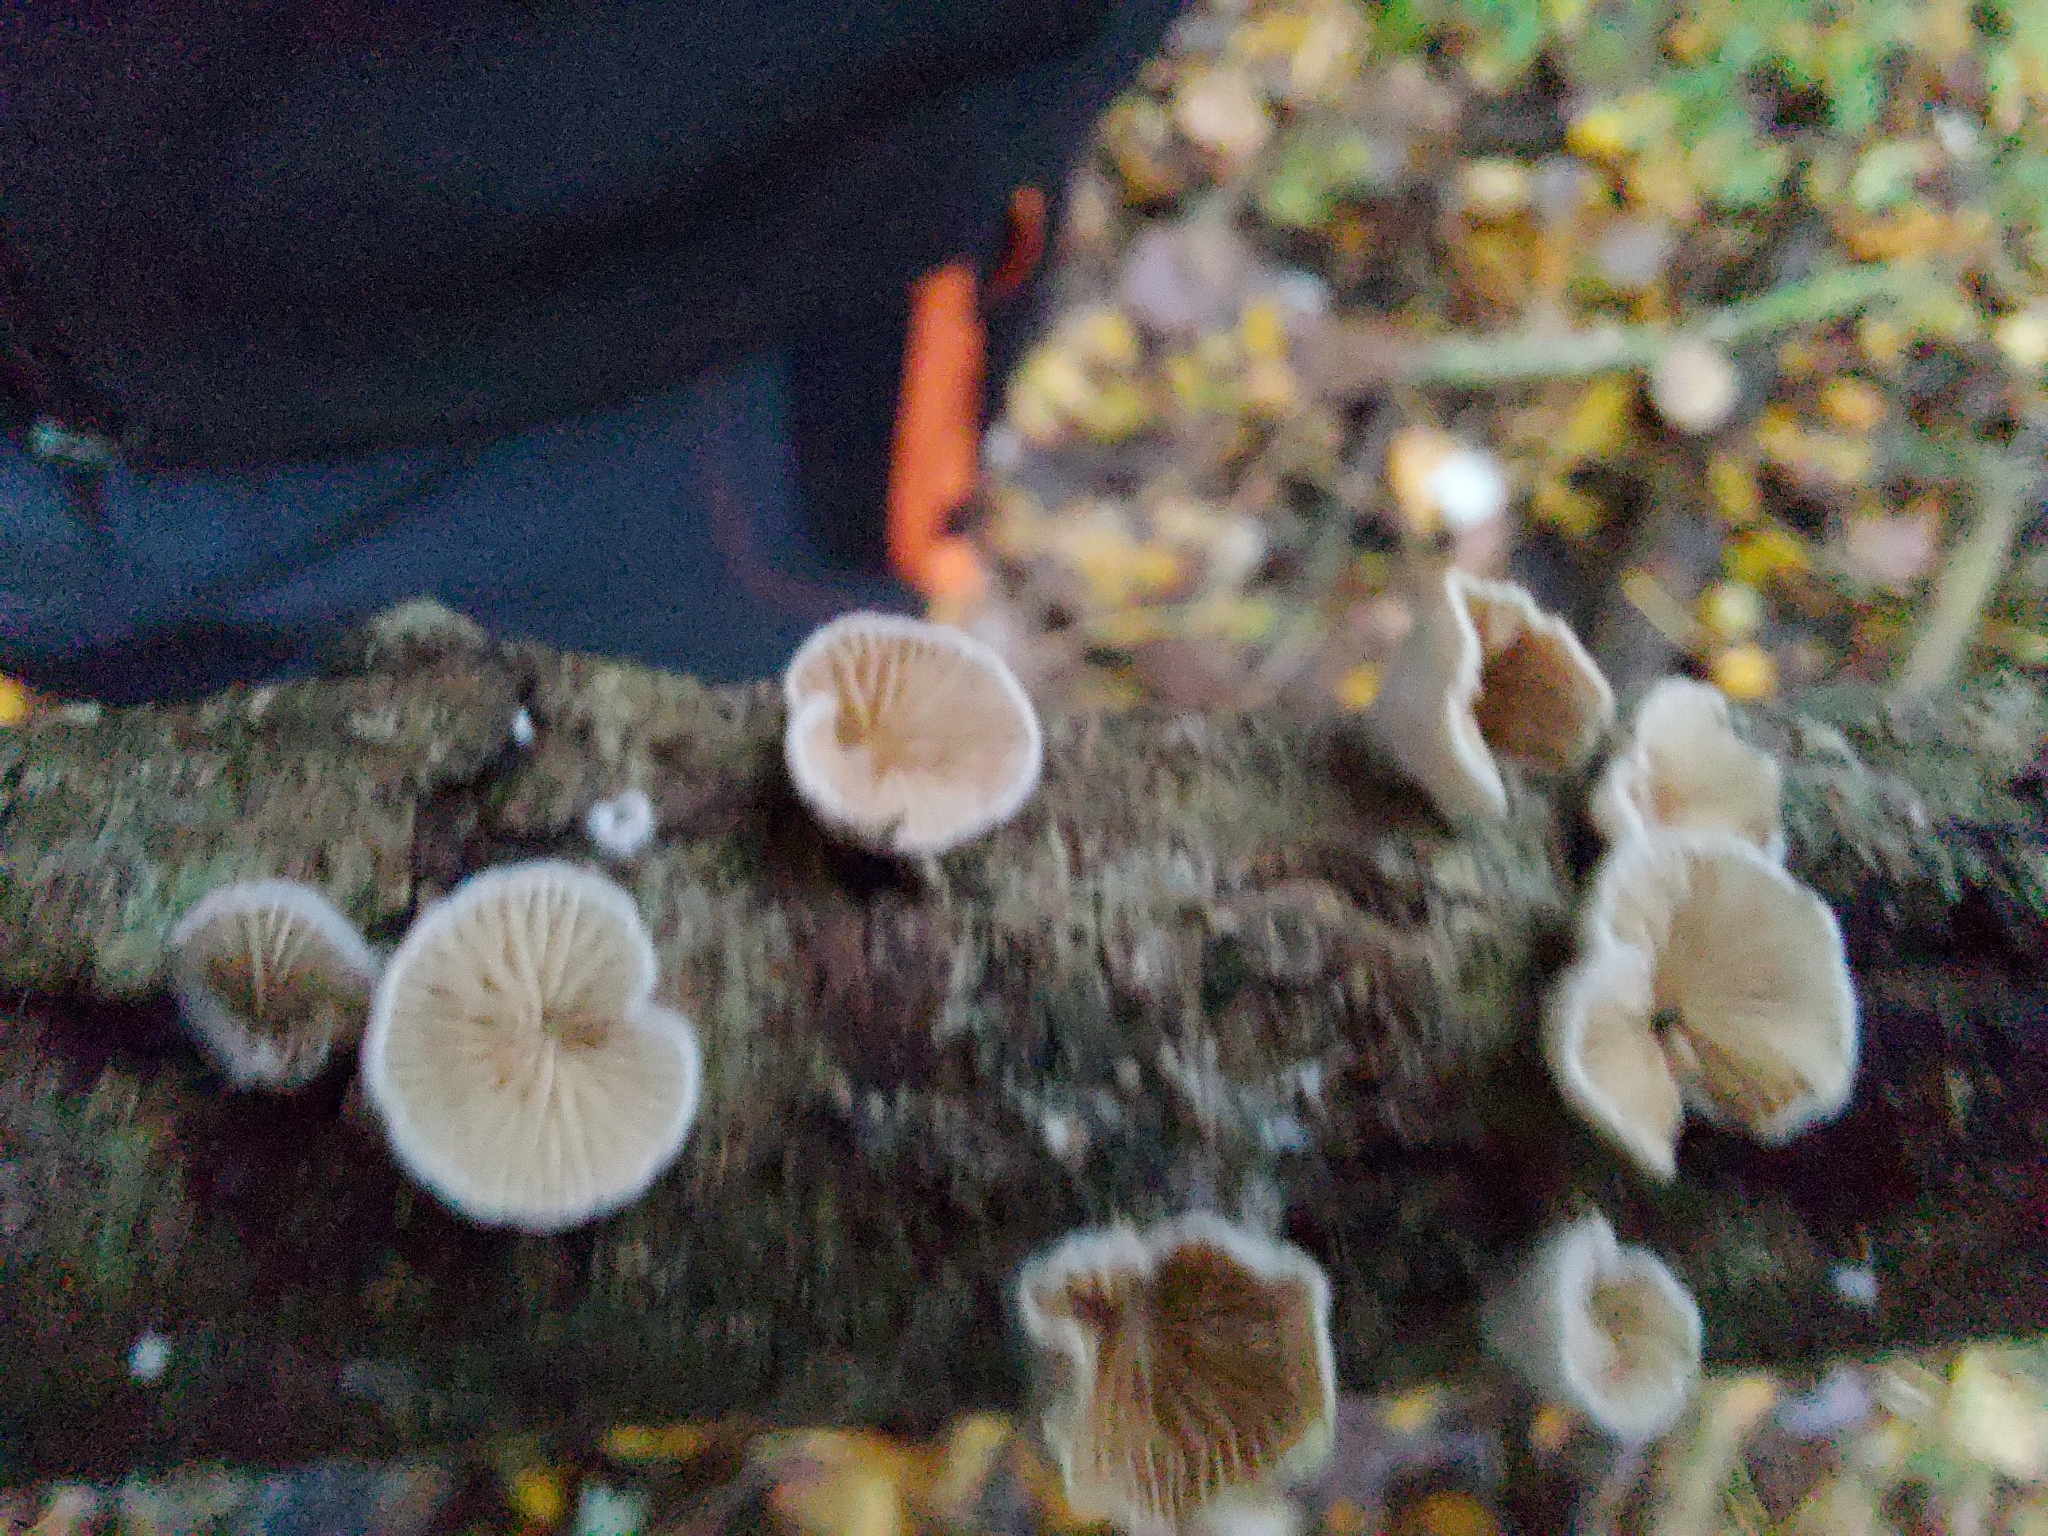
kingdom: Fungi
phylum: Basidiomycota
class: Agaricomycetes
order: Agaricales
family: Schizophyllaceae
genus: Schizophyllum
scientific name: Schizophyllum commune
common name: Common porecrust
